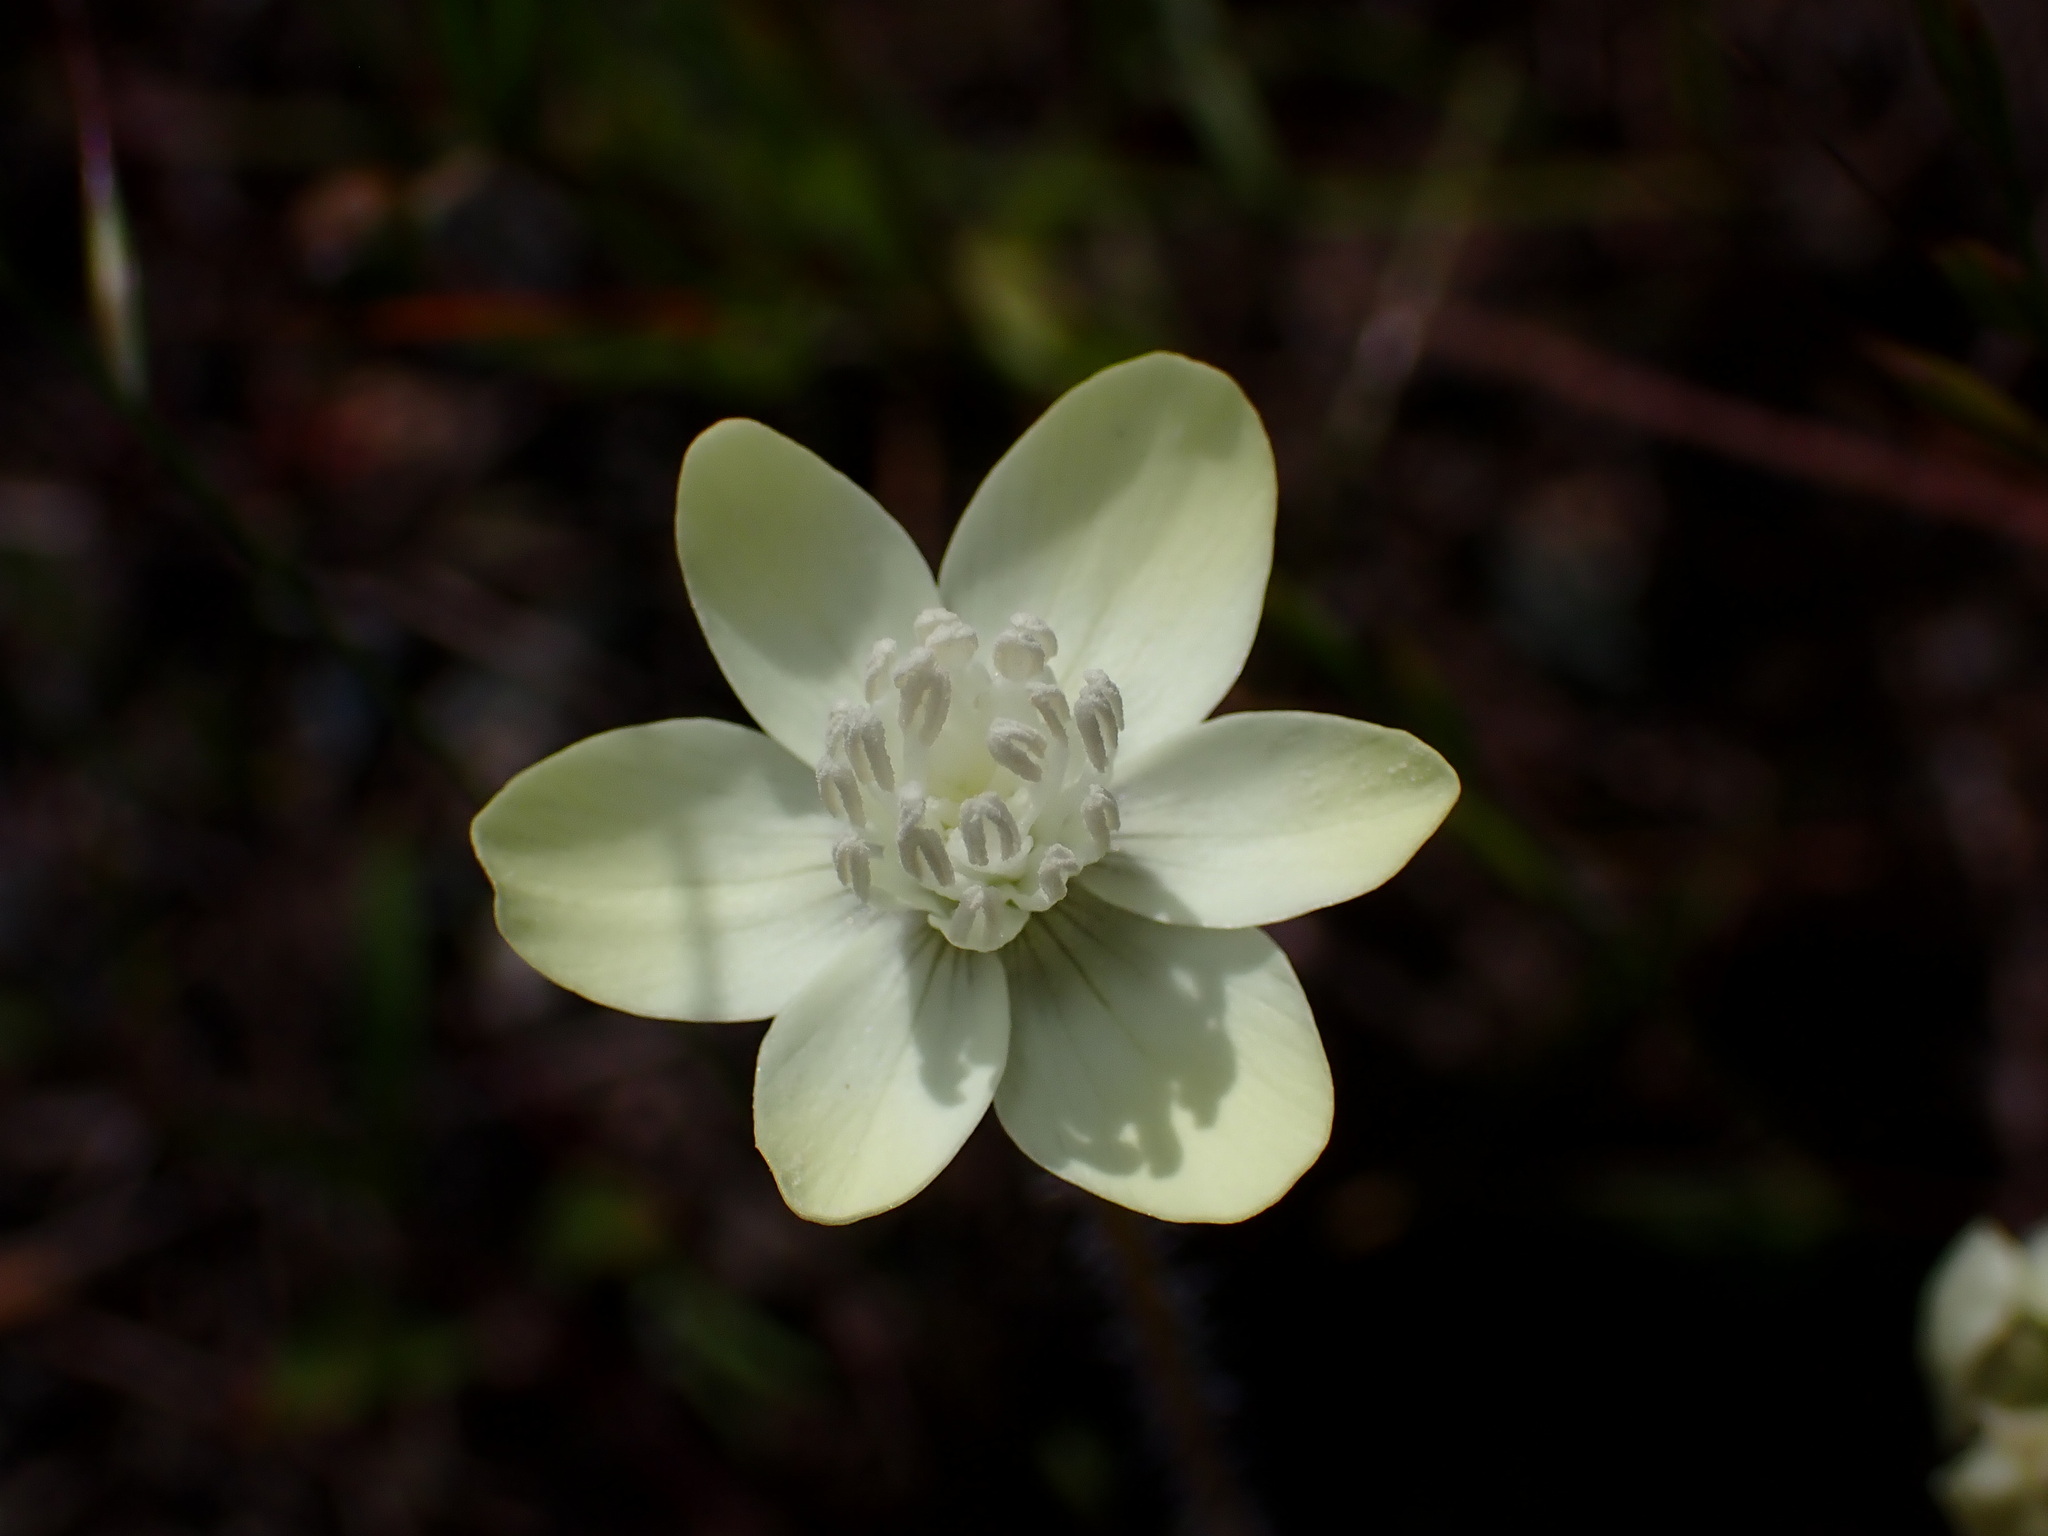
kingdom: Plantae
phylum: Tracheophyta
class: Magnoliopsida
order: Ranunculales
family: Papaveraceae
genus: Platystemon
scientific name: Platystemon californicus
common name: Cream-cups
